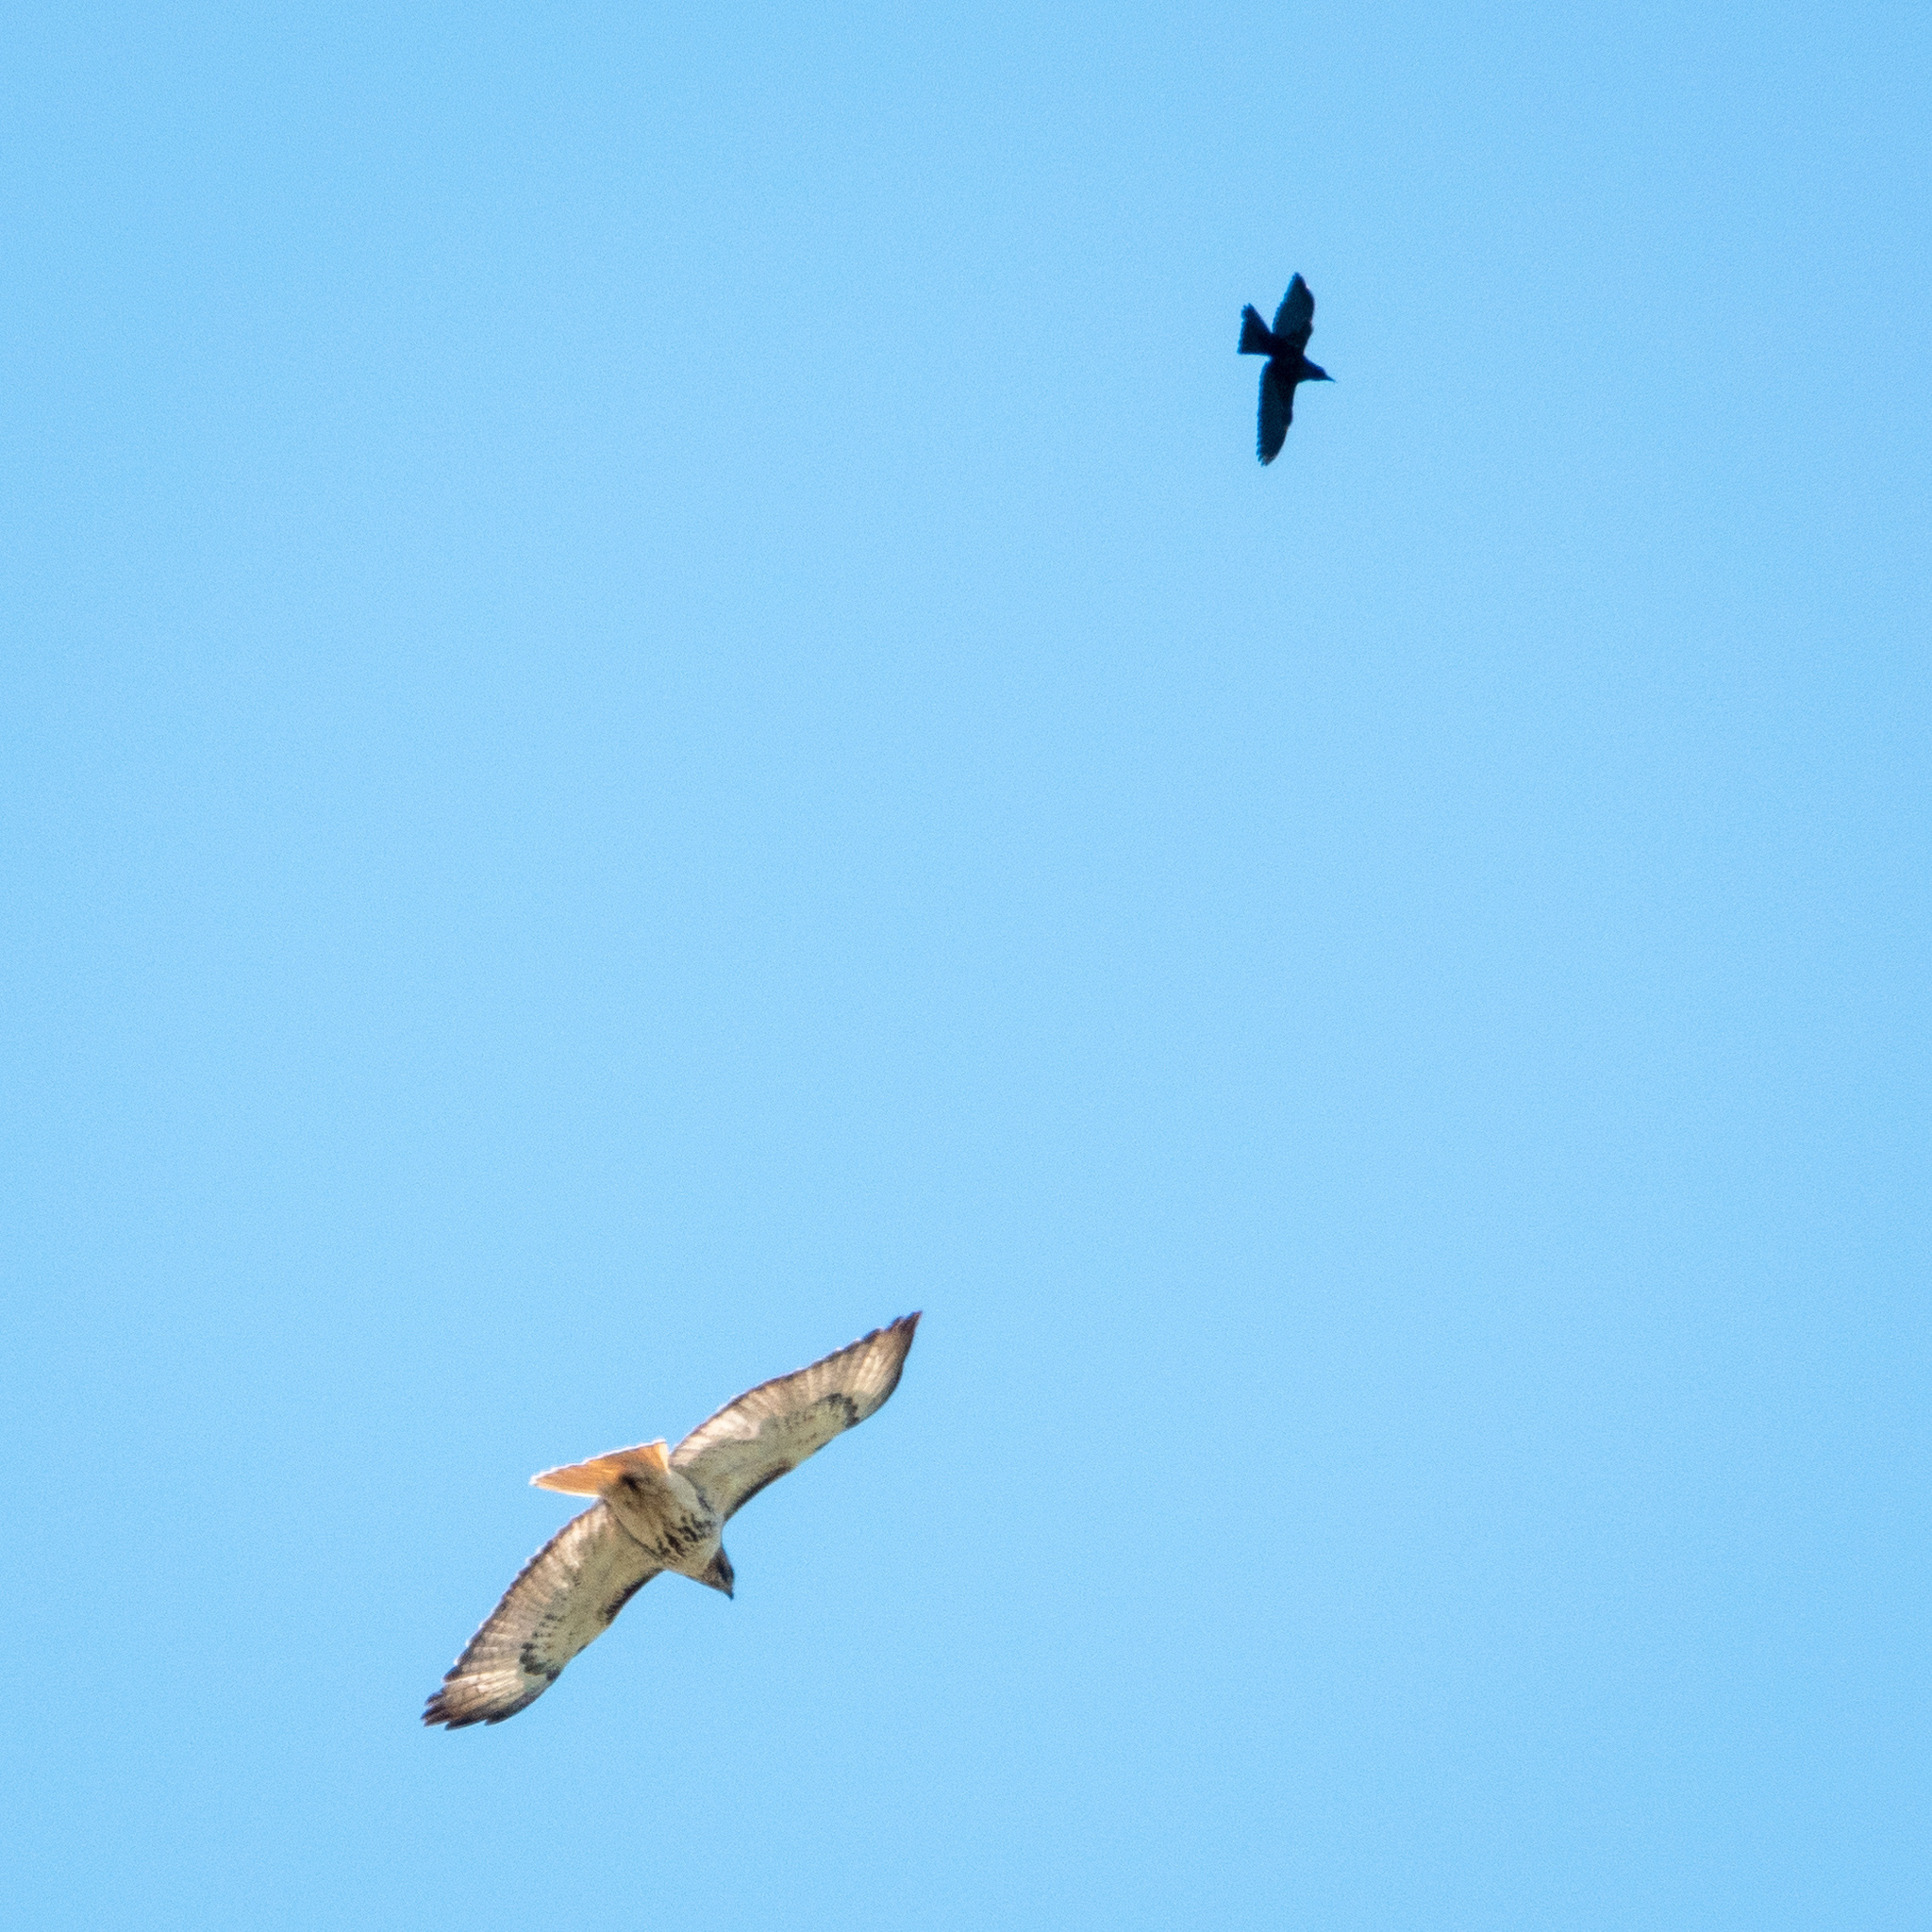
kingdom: Animalia
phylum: Chordata
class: Aves
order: Accipitriformes
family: Accipitridae
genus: Buteo
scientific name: Buteo jamaicensis
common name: Red-tailed hawk
